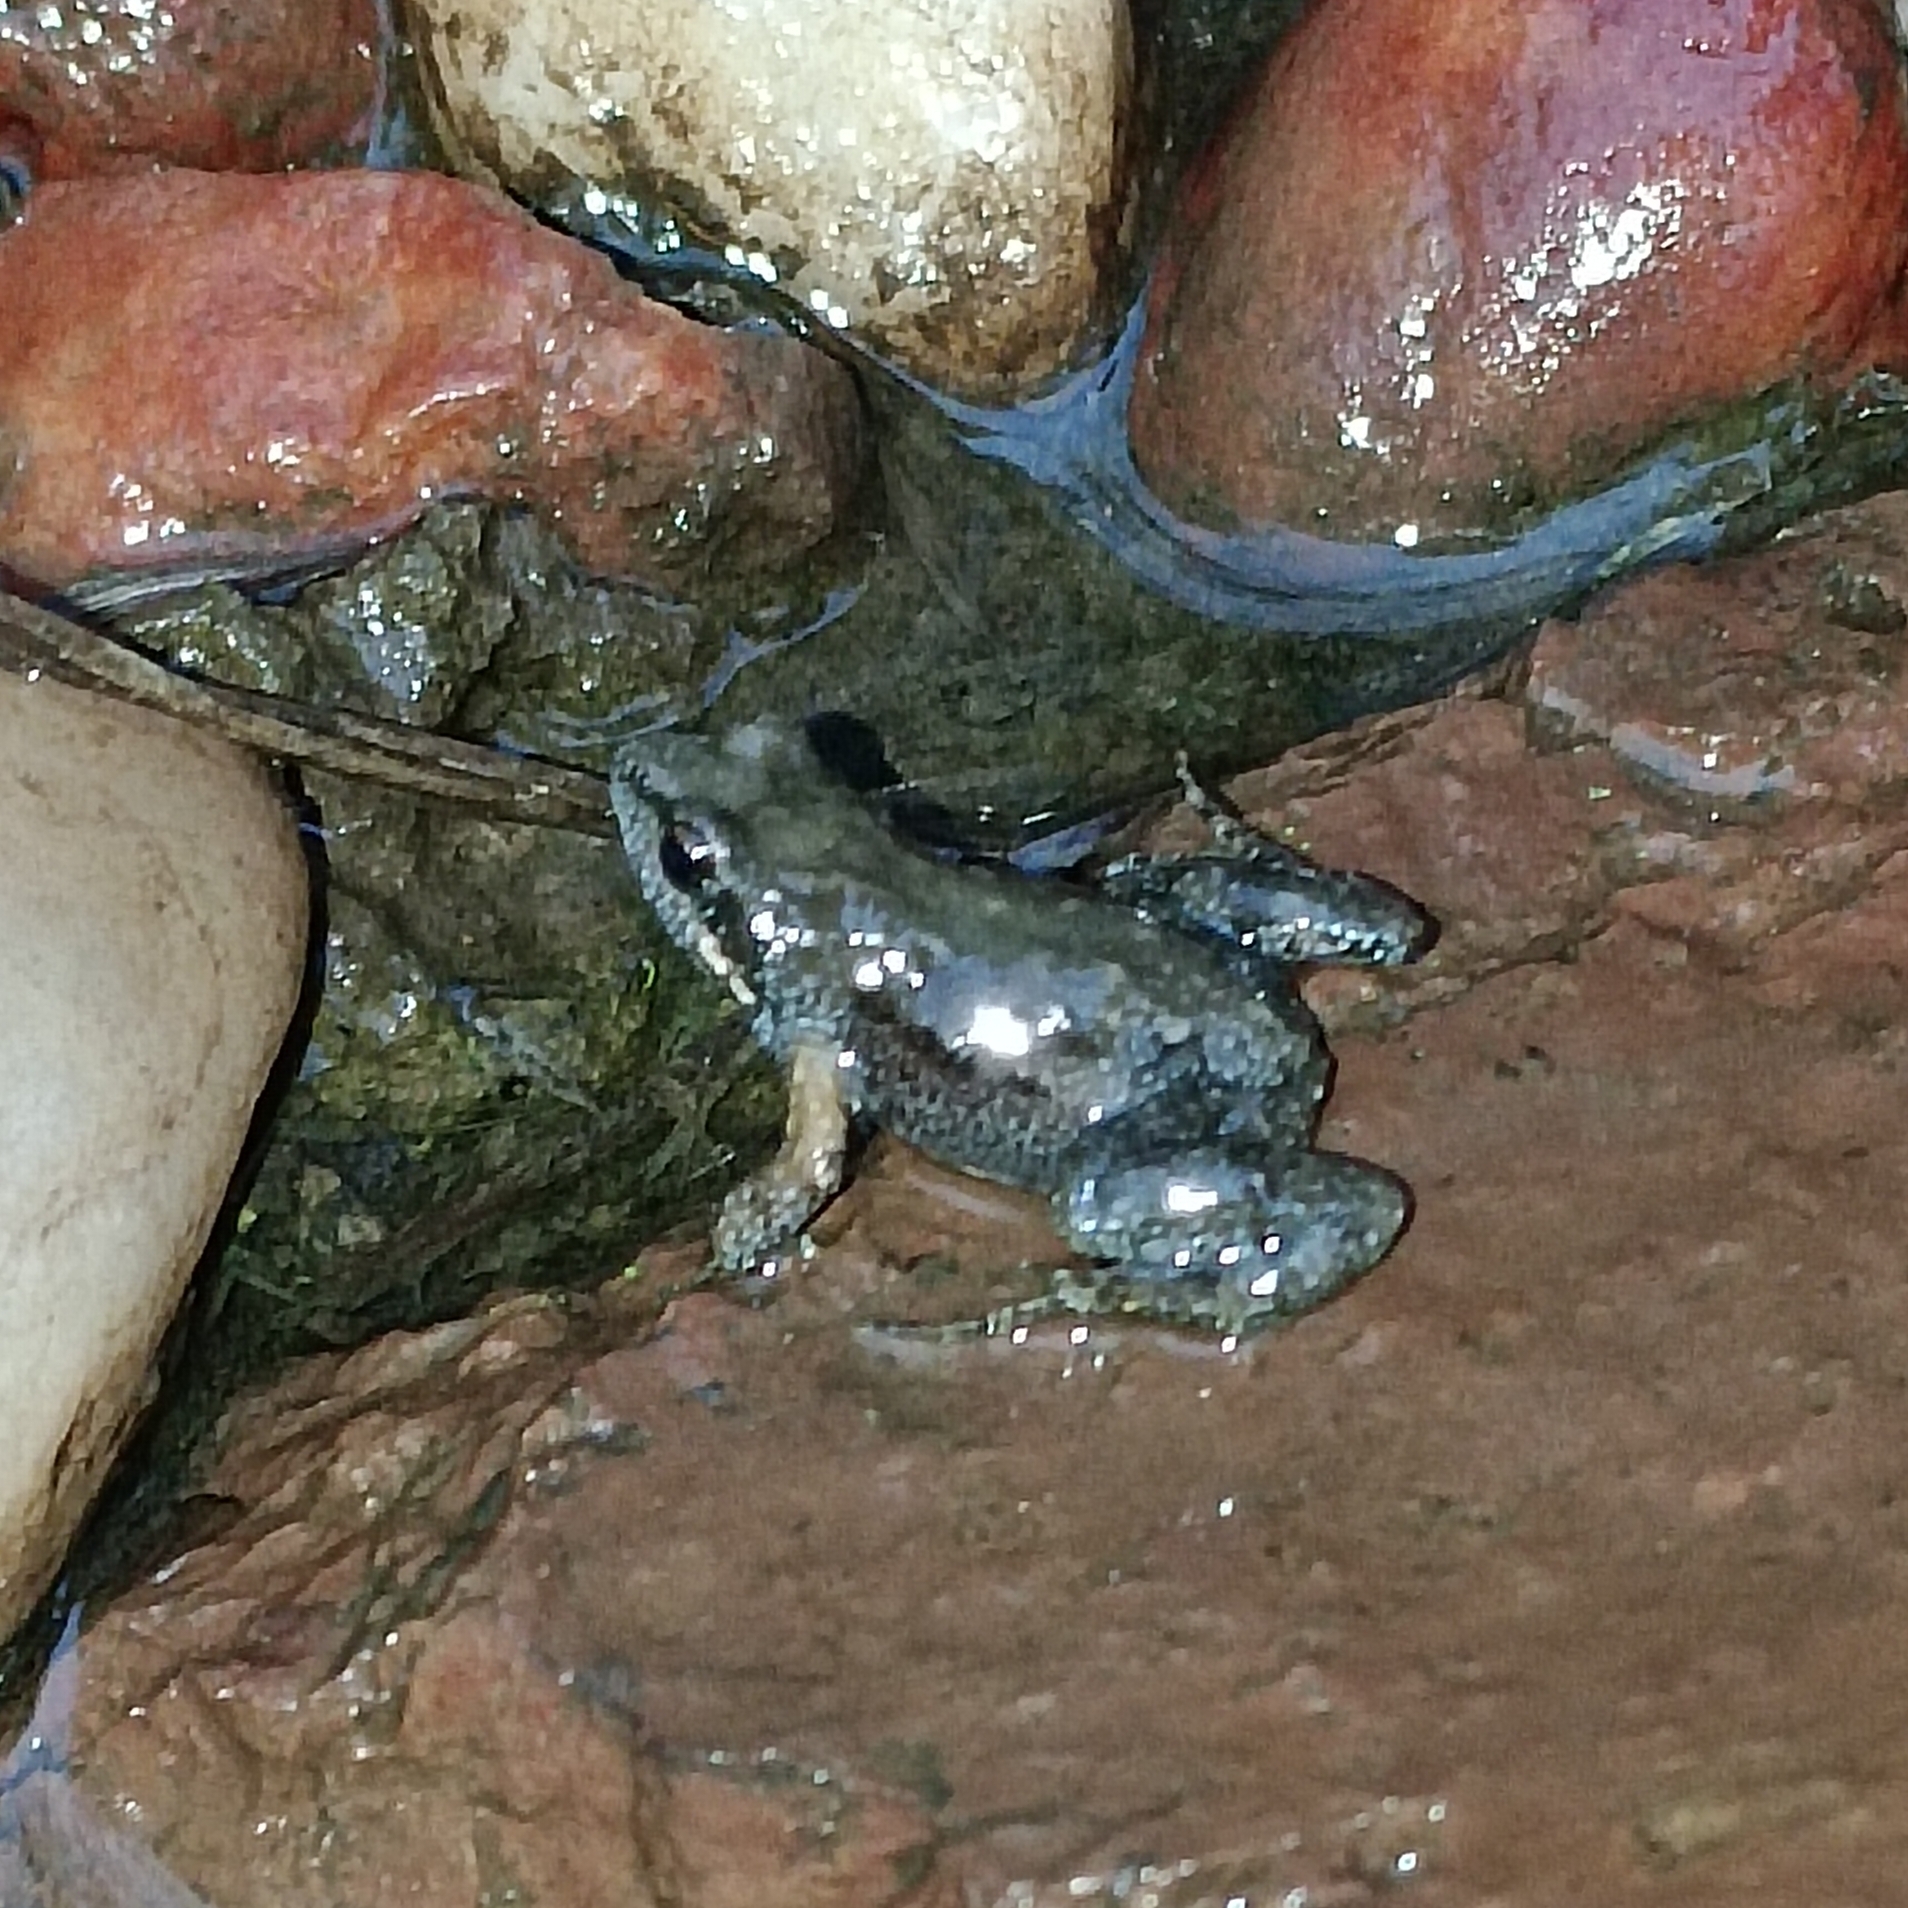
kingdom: Animalia
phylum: Chordata
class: Amphibia
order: Anura
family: Pyxicephalidae
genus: Cacosternum
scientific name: Cacosternum nanum
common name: Bronze dainty frog
